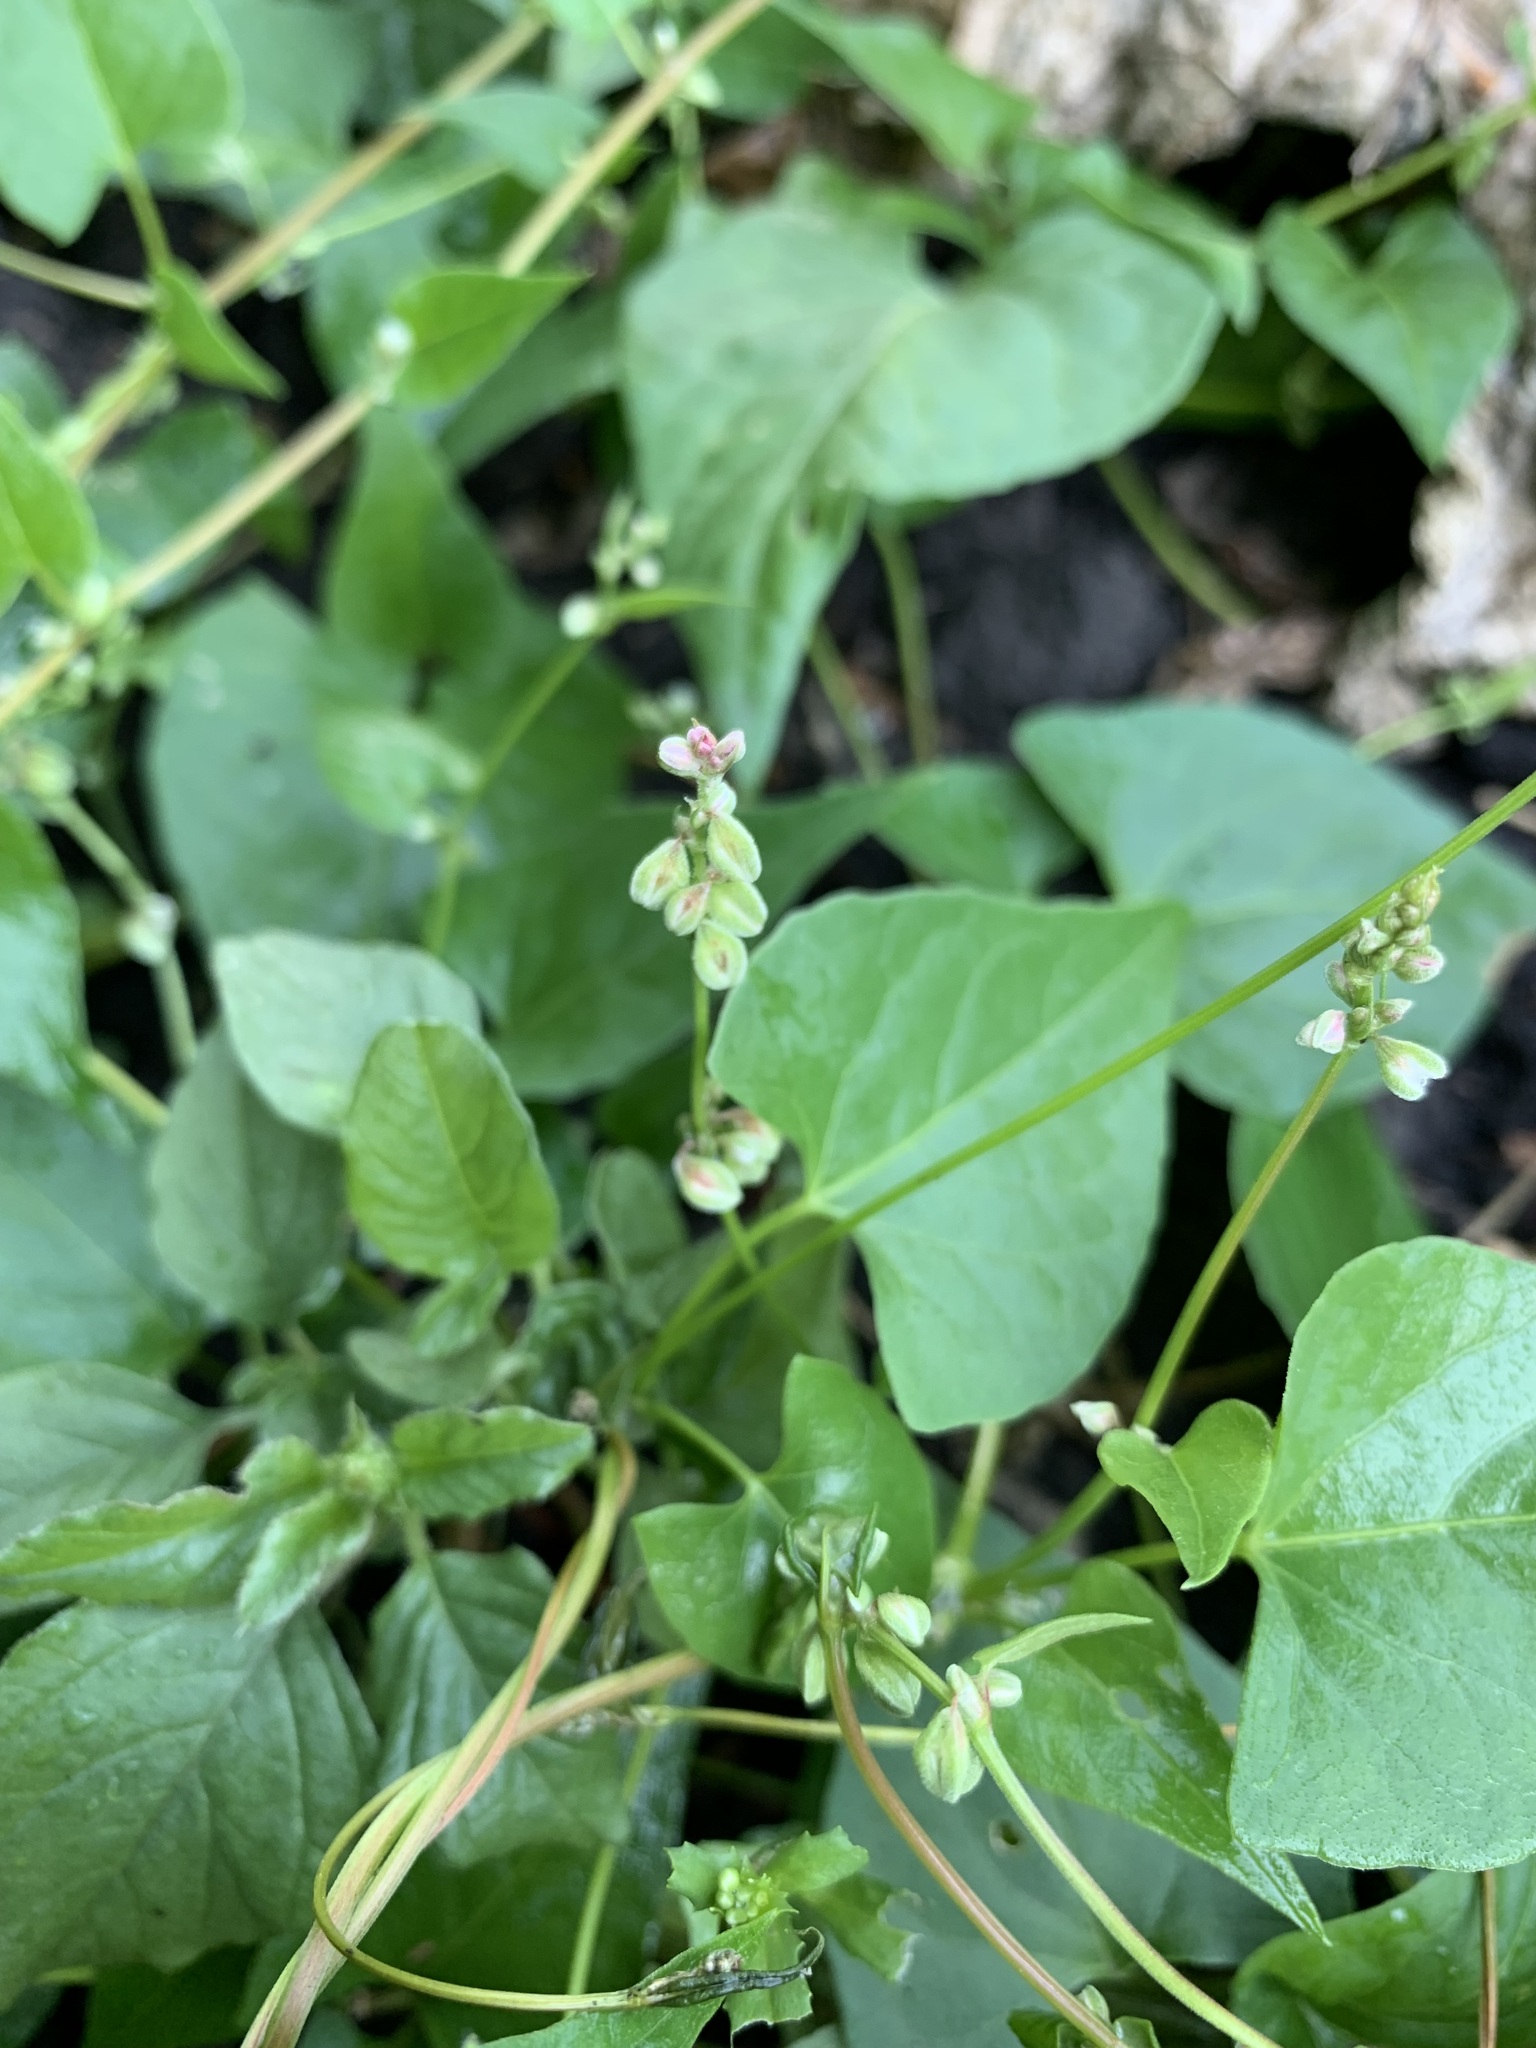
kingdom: Plantae
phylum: Tracheophyta
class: Magnoliopsida
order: Caryophyllales
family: Polygonaceae
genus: Fallopia
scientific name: Fallopia convolvulus
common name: Black bindweed
